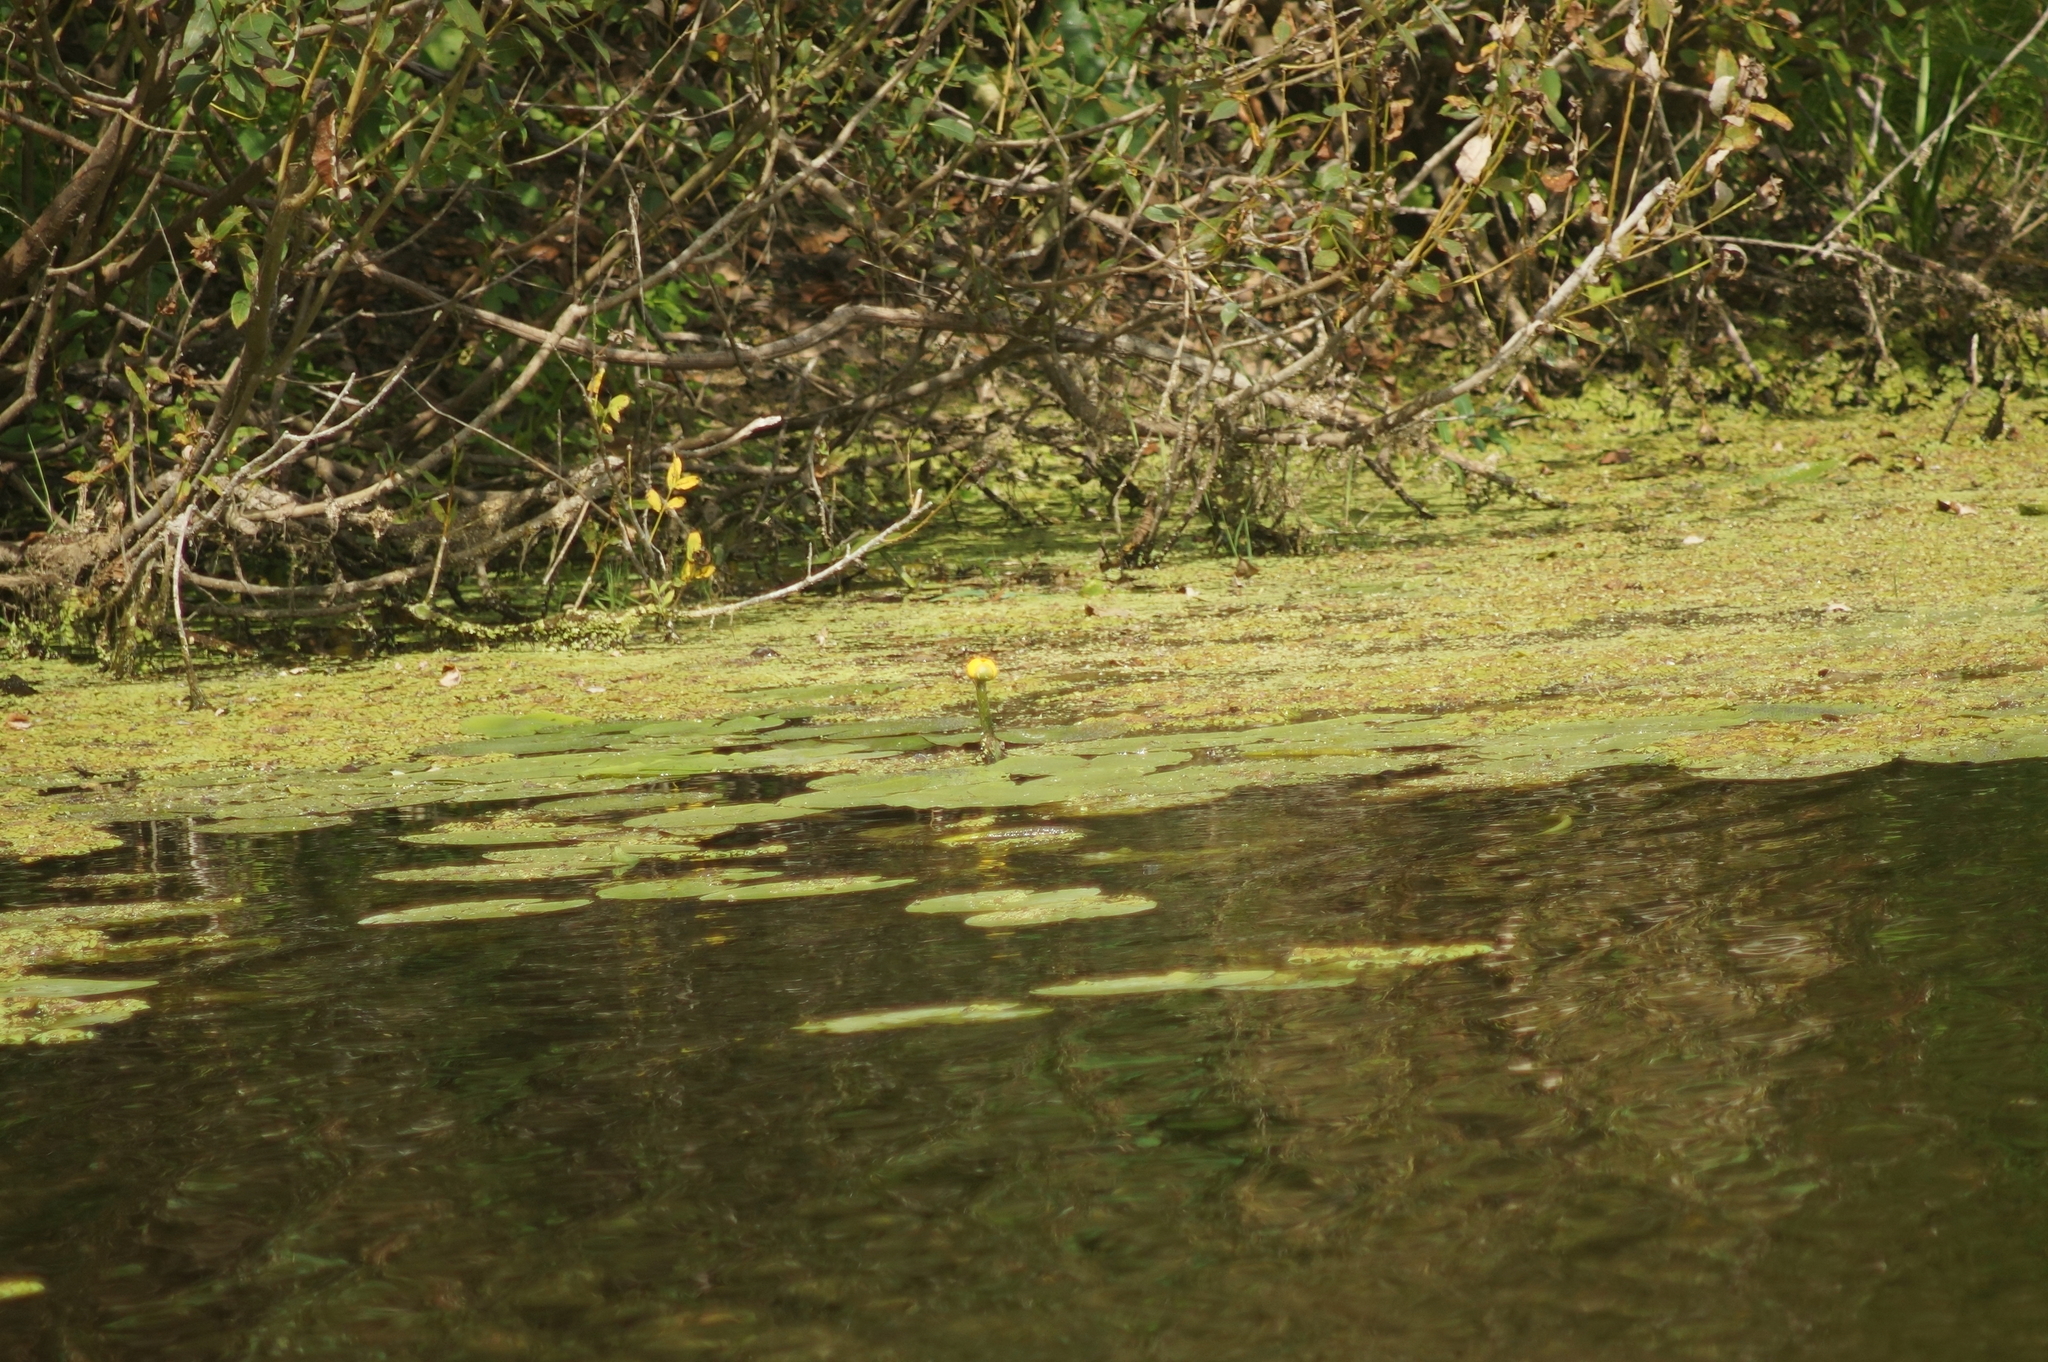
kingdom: Plantae
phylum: Tracheophyta
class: Magnoliopsida
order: Nymphaeales
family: Nymphaeaceae
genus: Nuphar
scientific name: Nuphar lutea
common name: Yellow water-lily
